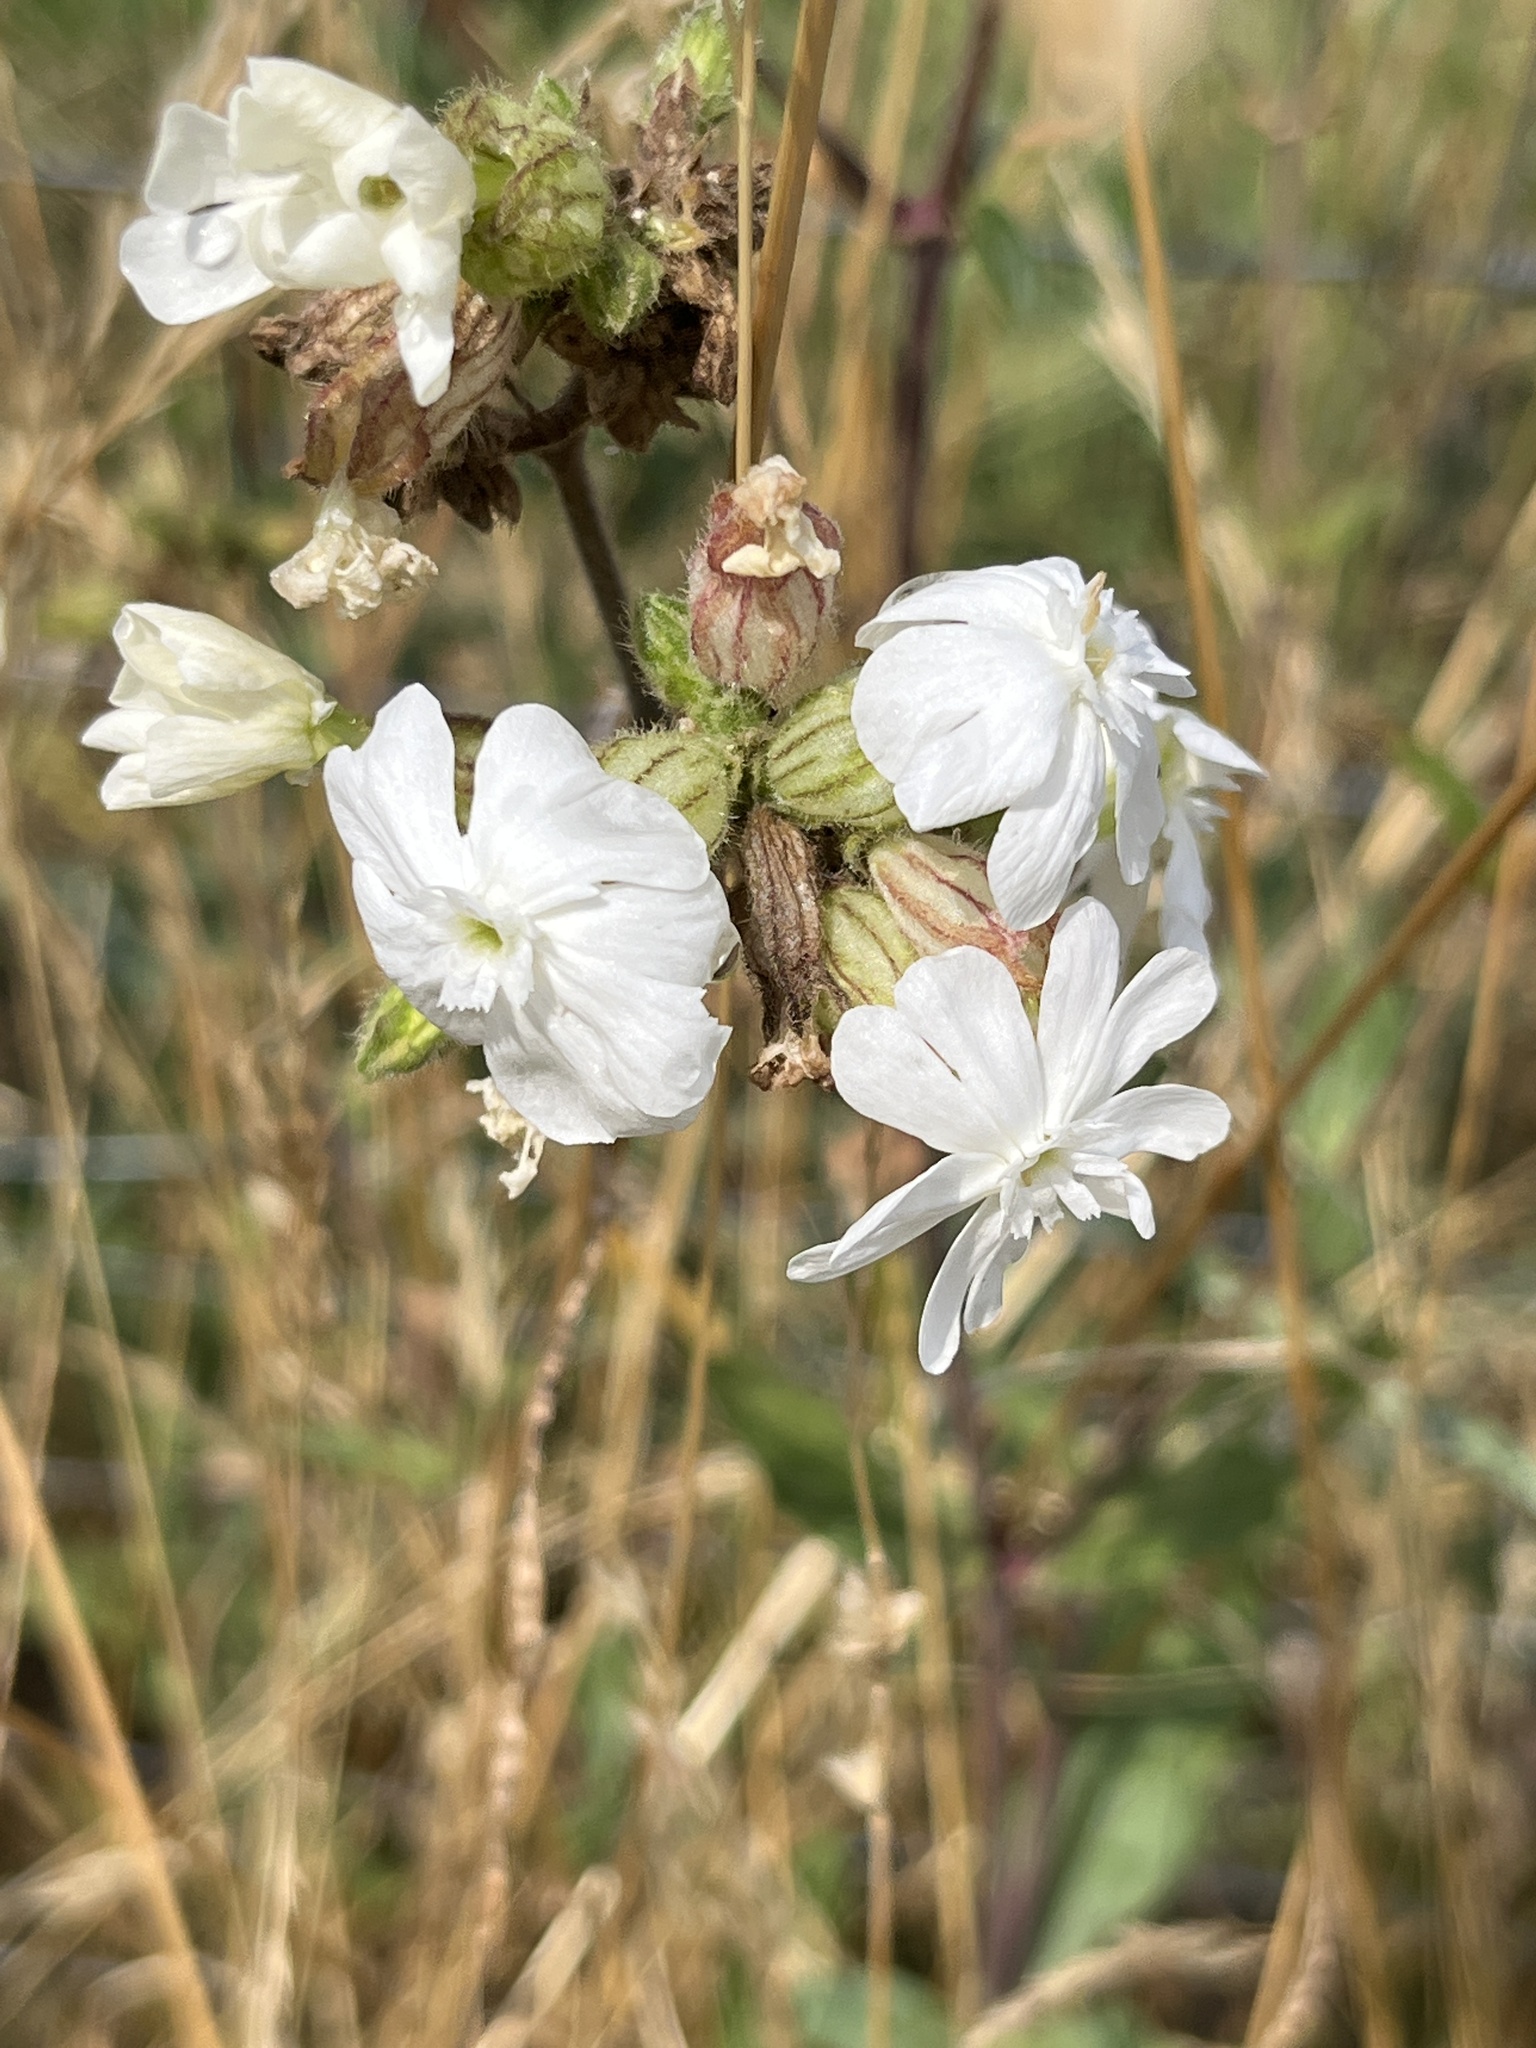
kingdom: Plantae
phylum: Tracheophyta
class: Magnoliopsida
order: Caryophyllales
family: Caryophyllaceae
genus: Silene
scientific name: Silene latifolia
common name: White campion
